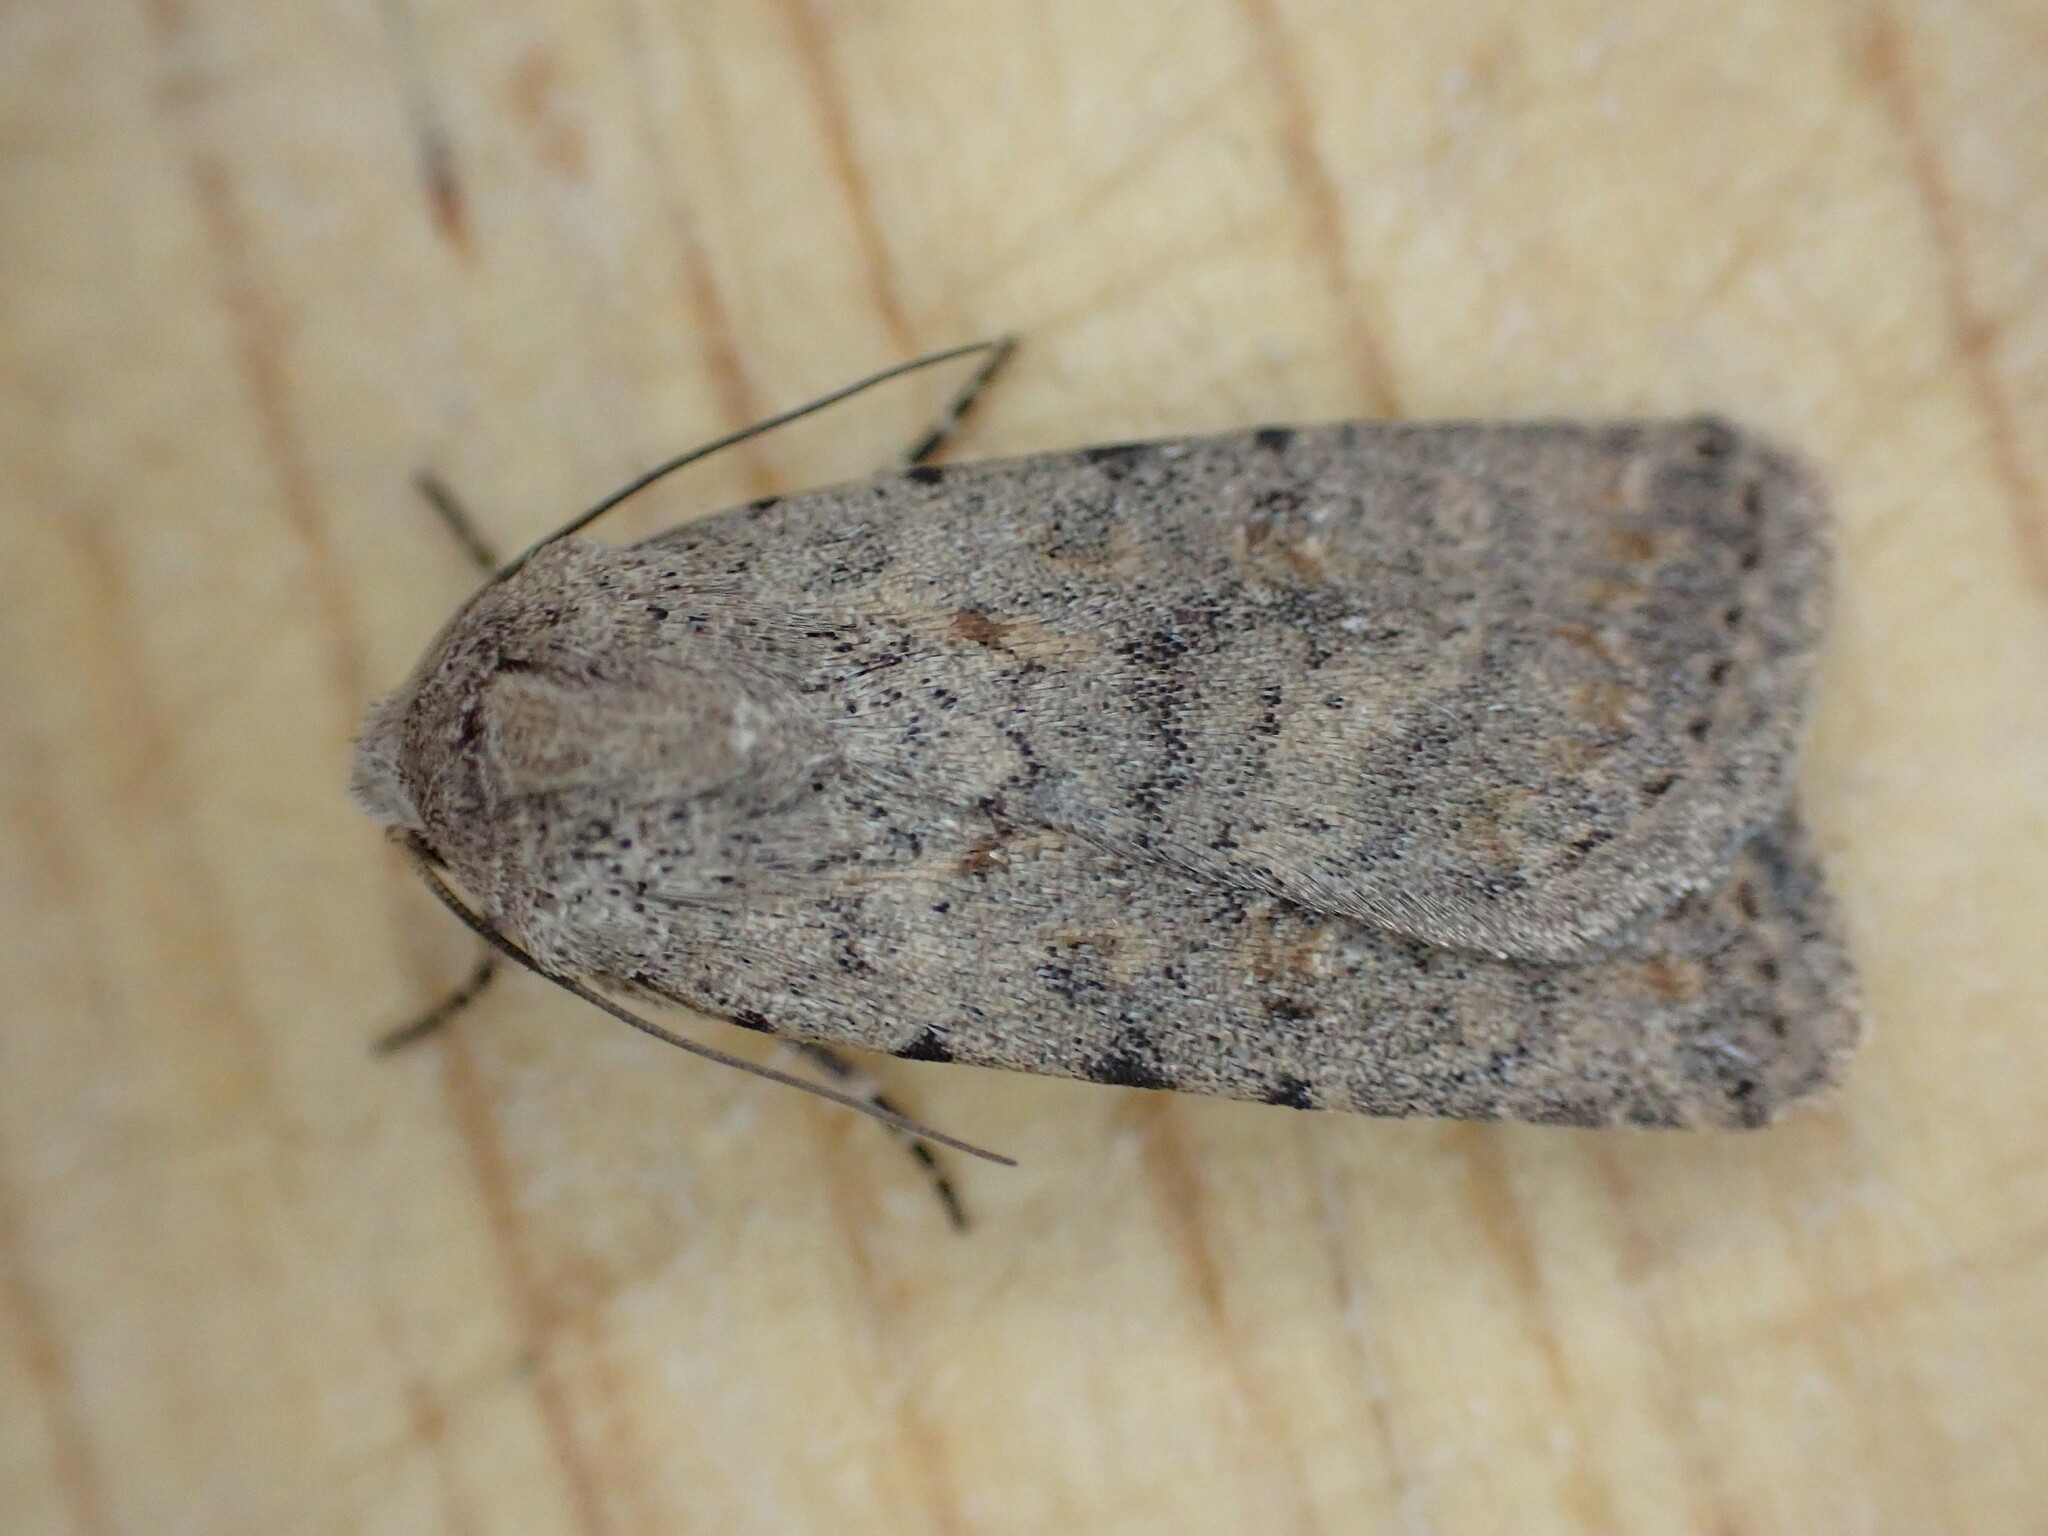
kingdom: Animalia
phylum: Arthropoda
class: Insecta
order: Lepidoptera
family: Noctuidae
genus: Caradrina
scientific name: Caradrina clavipalpis
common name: Pale mottled willow
